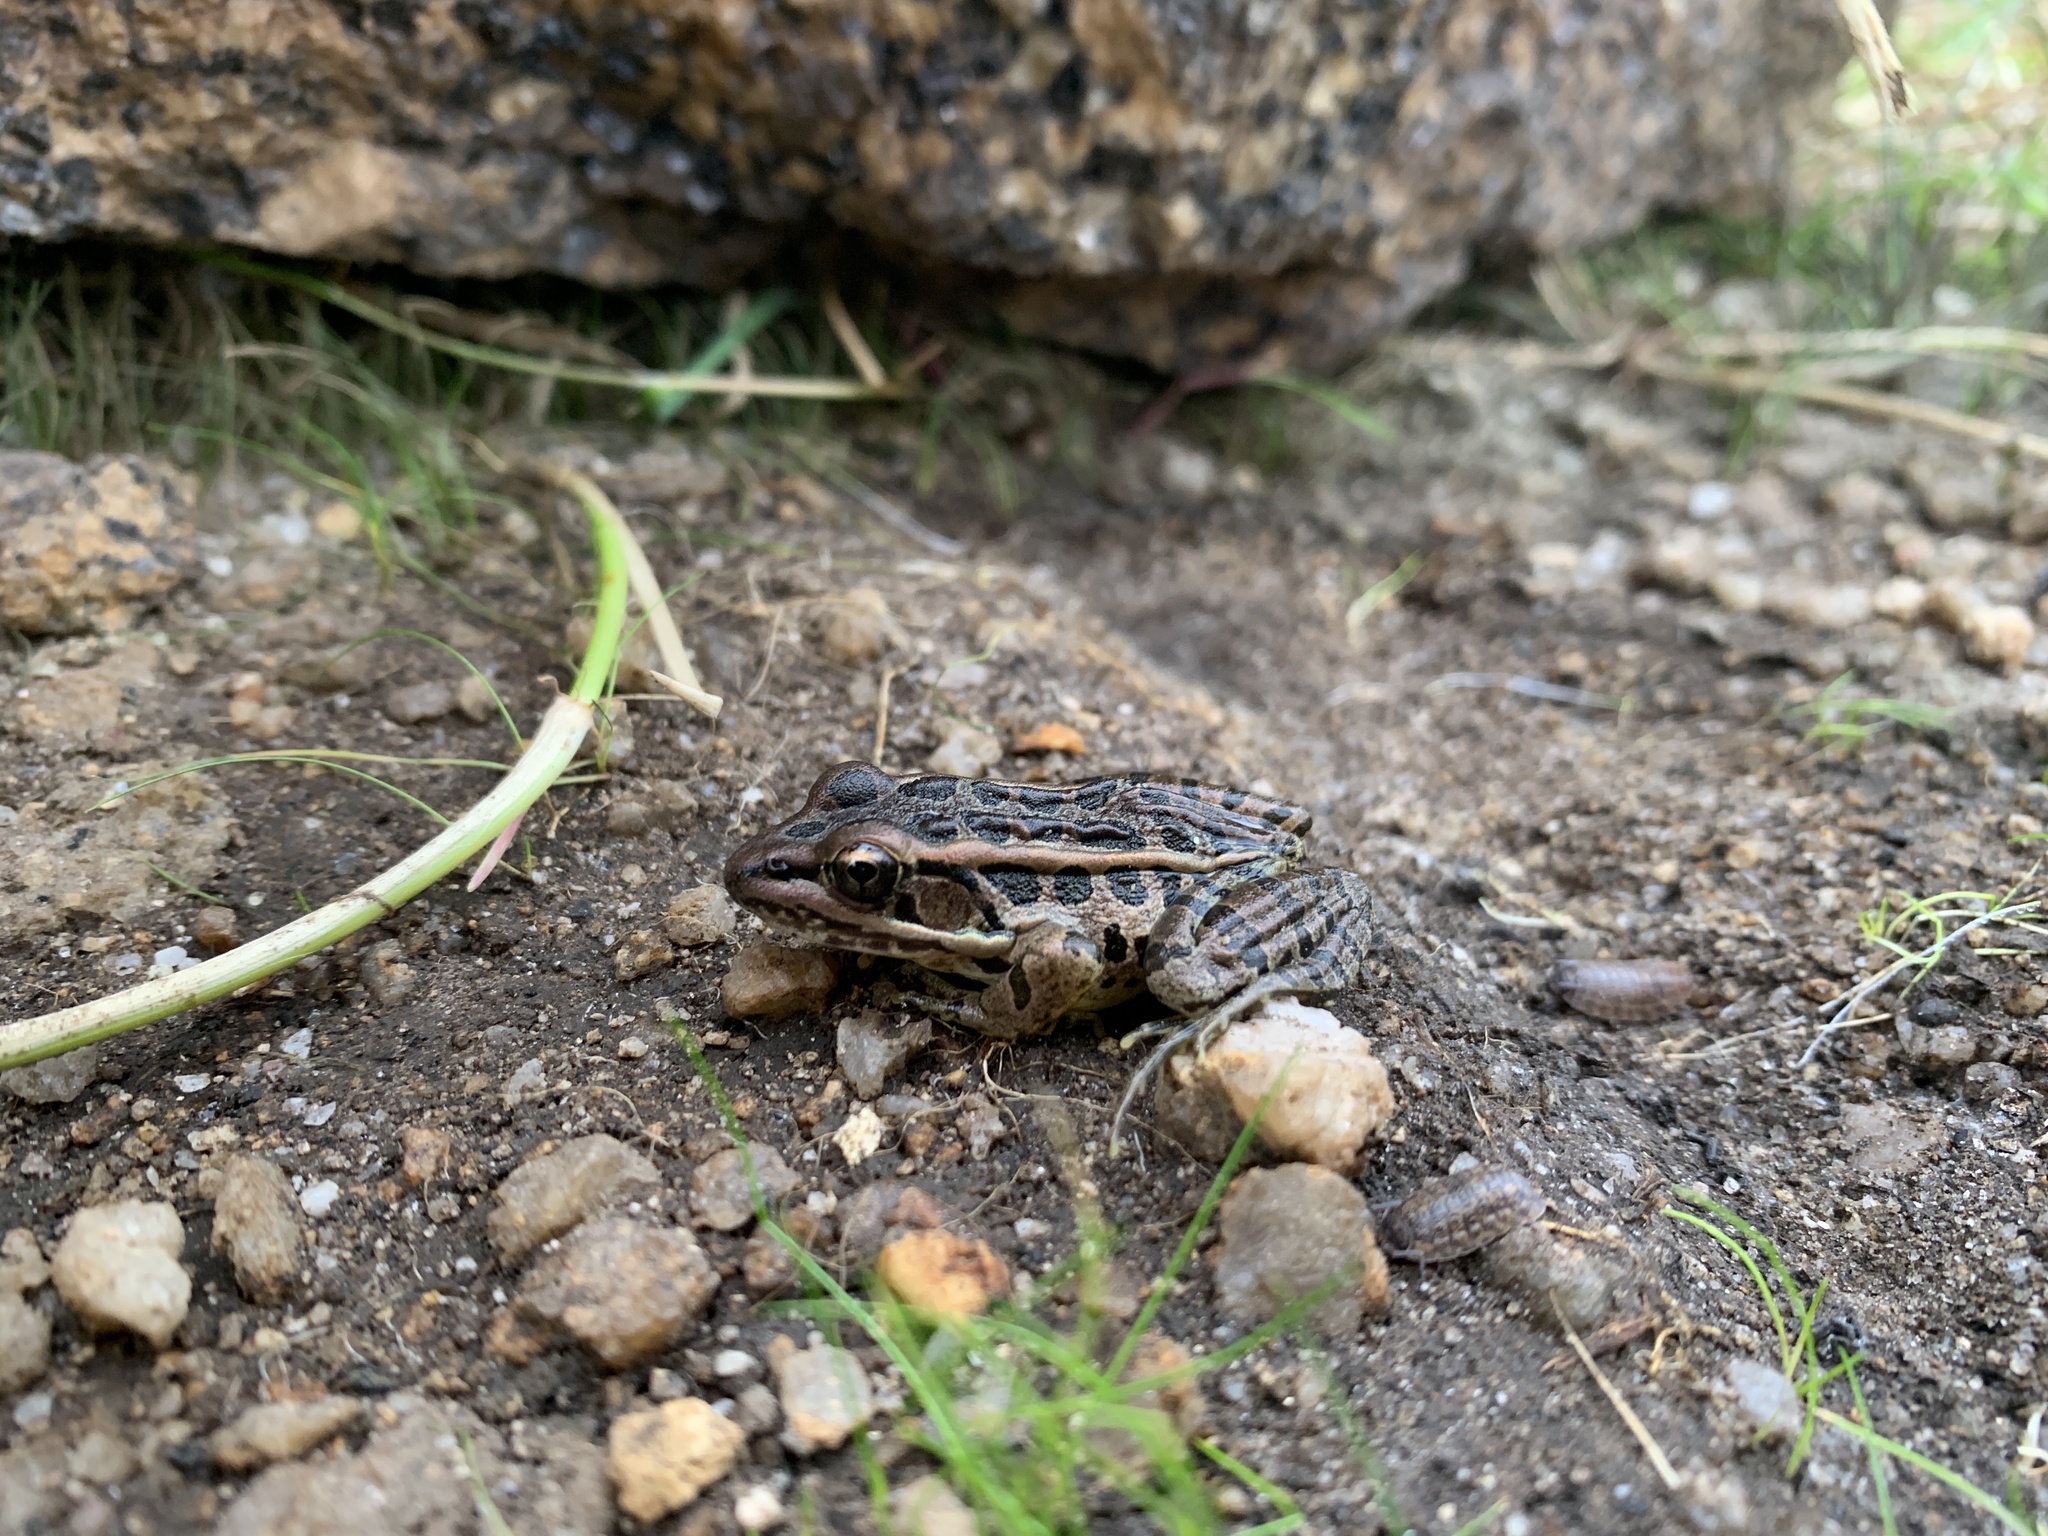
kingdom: Animalia
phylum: Chordata
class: Amphibia
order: Anura
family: Ranidae
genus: Lithobates
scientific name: Lithobates palustris
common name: Pickerel frog
